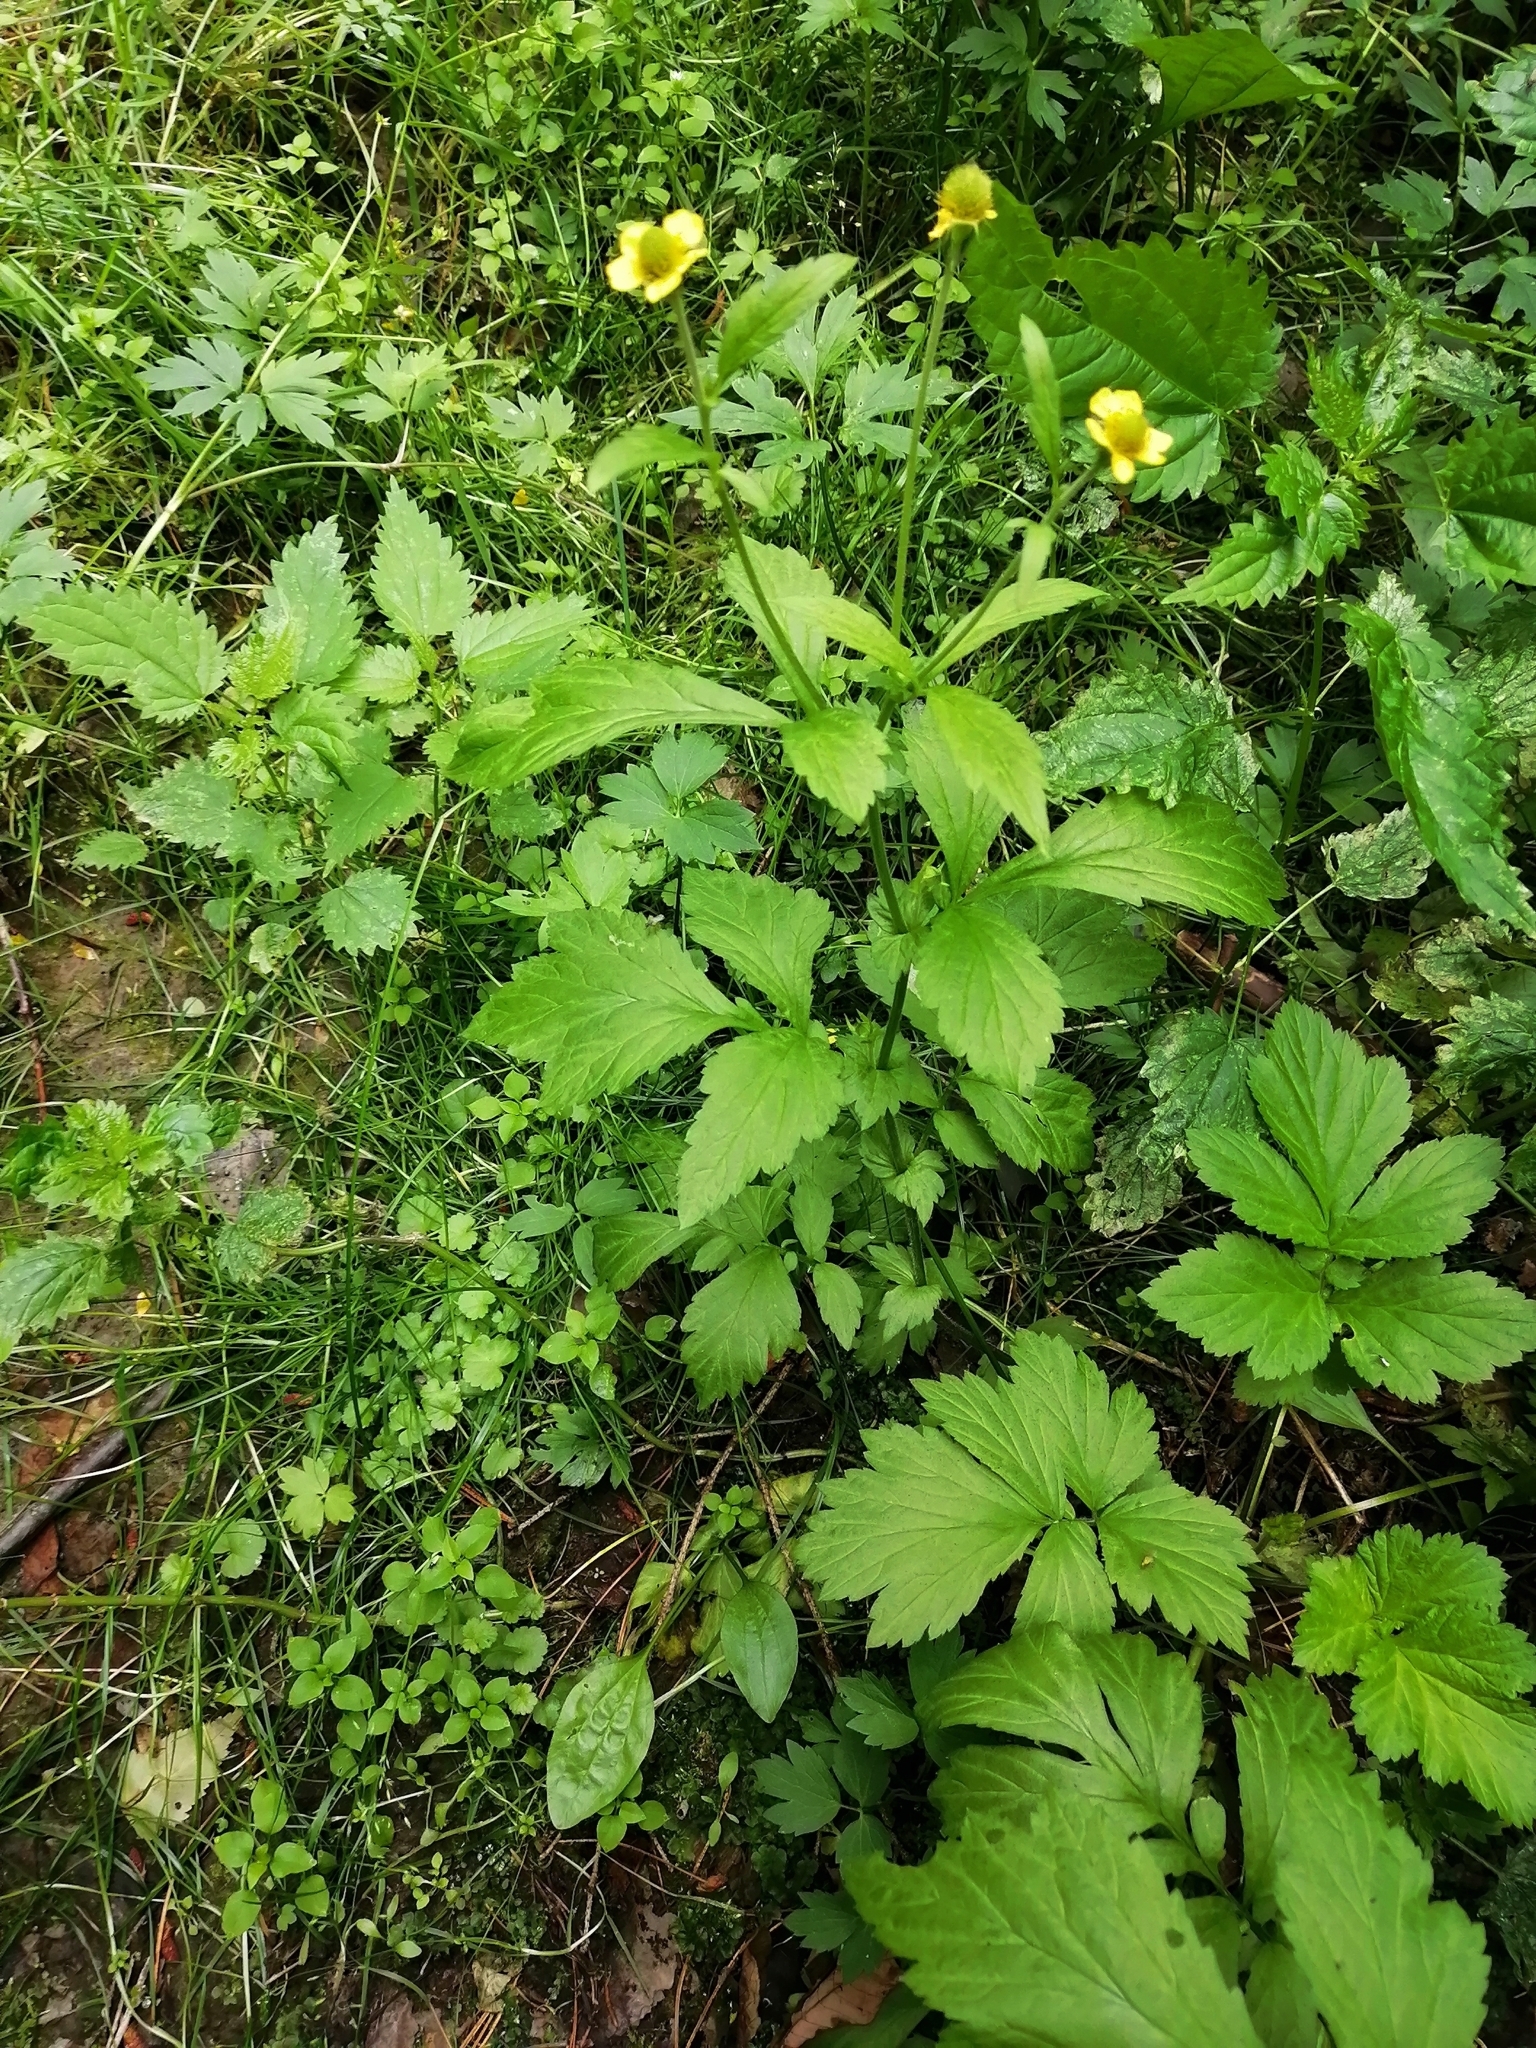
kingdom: Plantae
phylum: Tracheophyta
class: Magnoliopsida
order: Rosales
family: Rosaceae
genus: Geum
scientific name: Geum aleppicum
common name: Yellow avens
